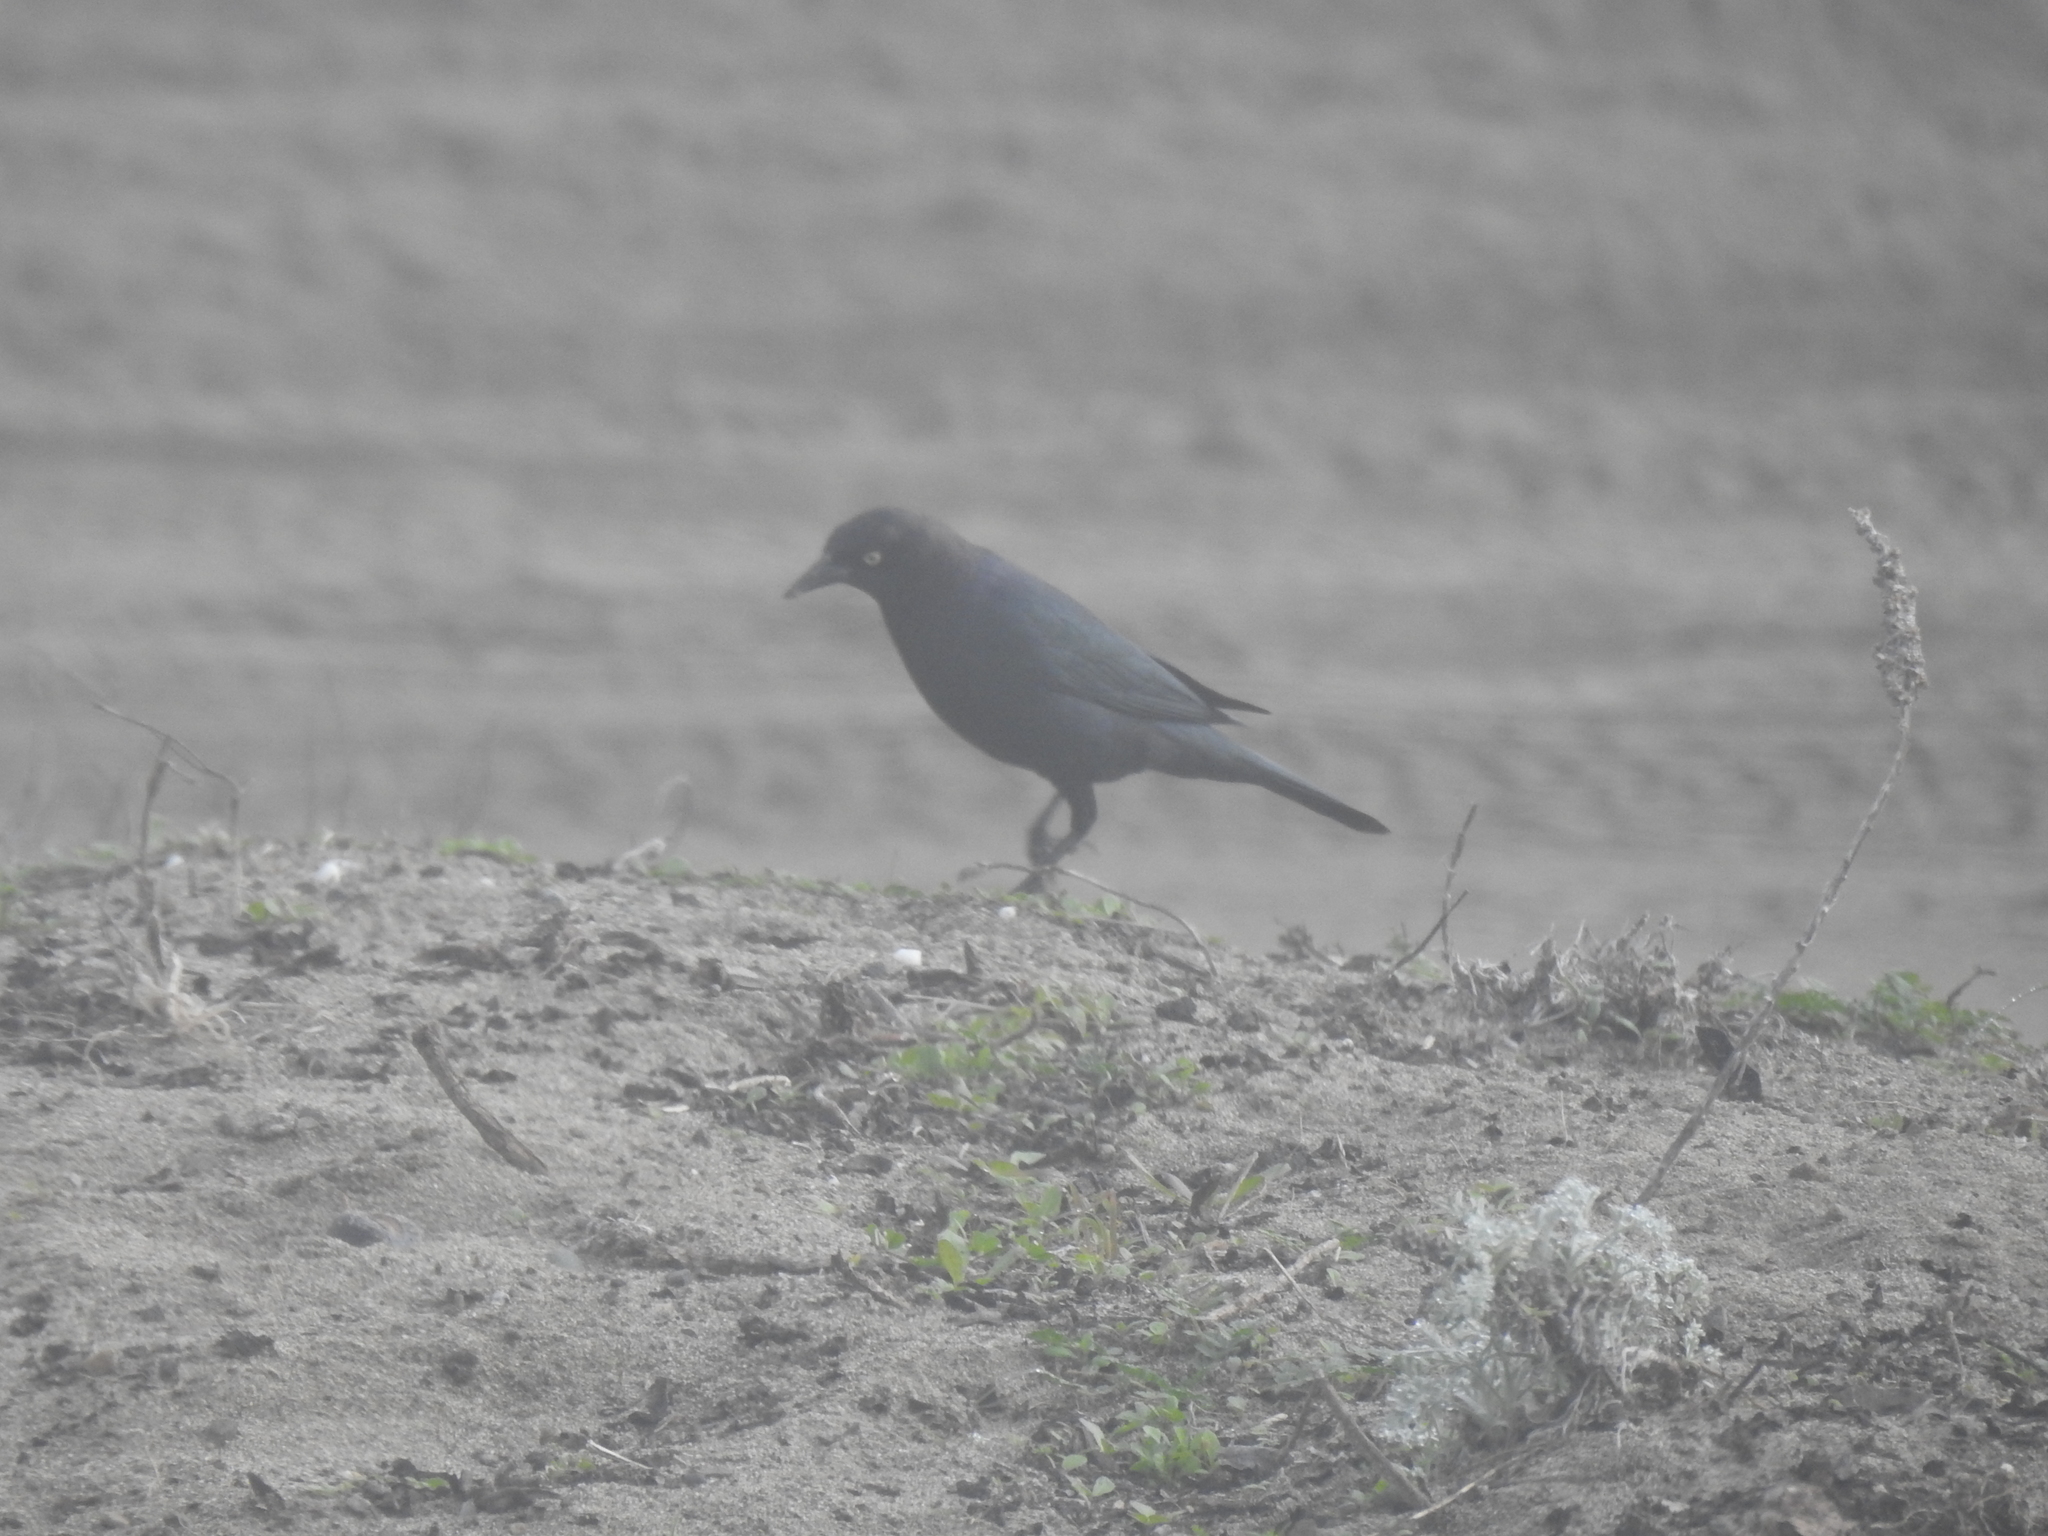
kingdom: Animalia
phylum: Chordata
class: Aves
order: Passeriformes
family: Icteridae
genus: Euphagus
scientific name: Euphagus cyanocephalus
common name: Brewer's blackbird
